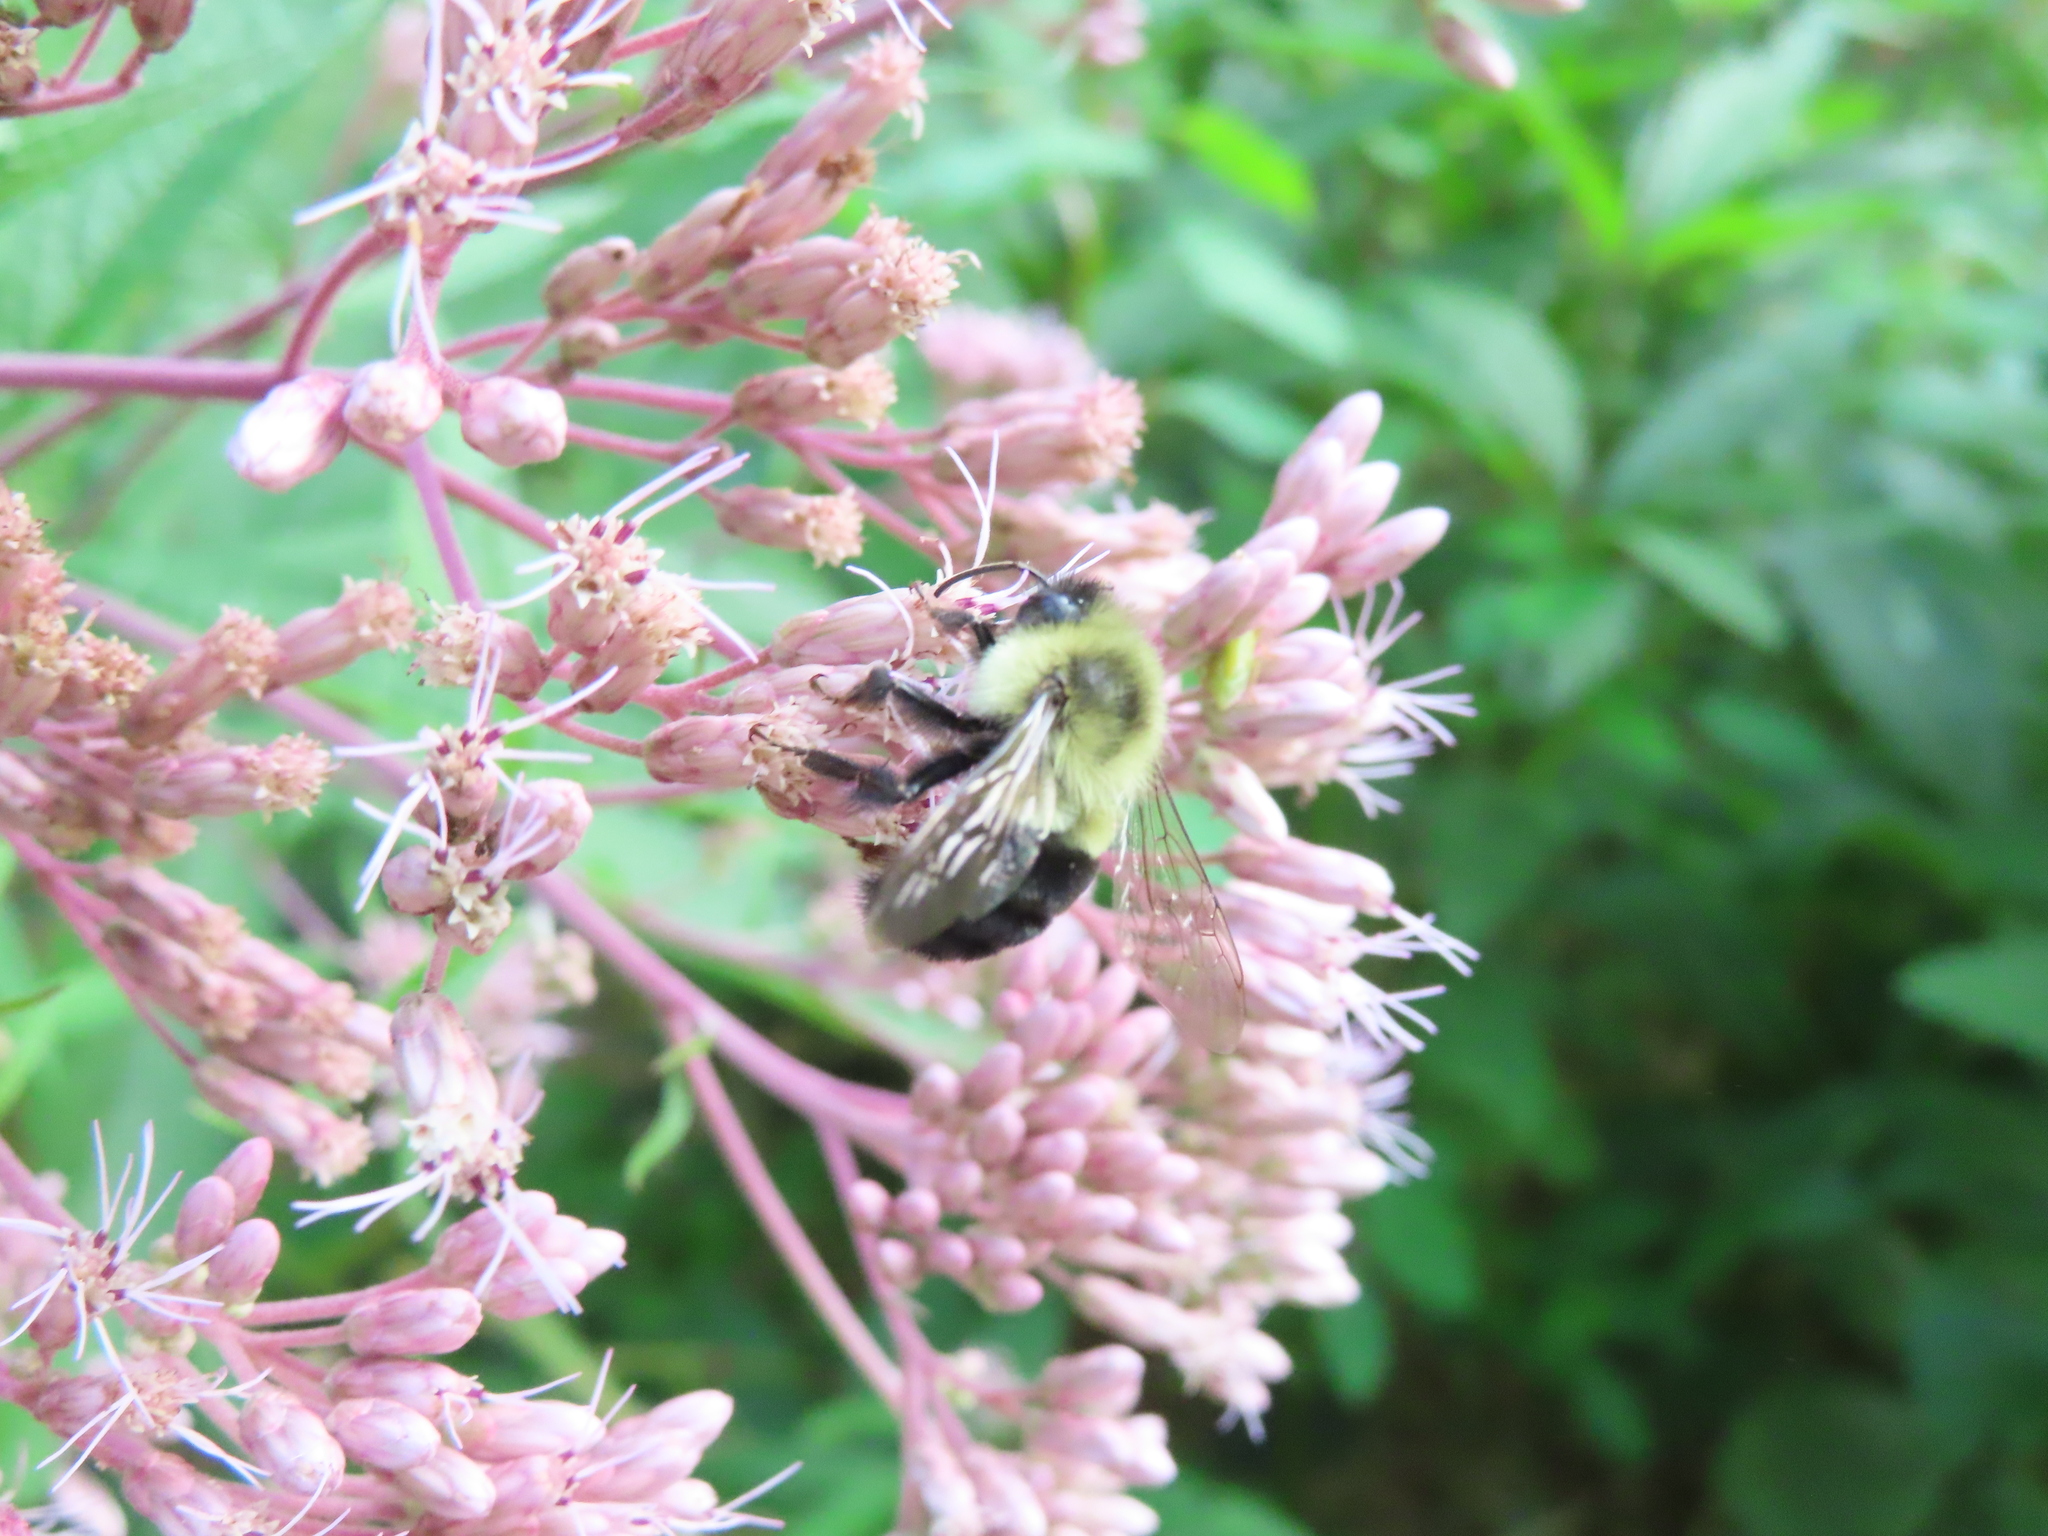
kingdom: Animalia
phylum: Arthropoda
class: Insecta
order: Hymenoptera
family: Apidae
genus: Bombus
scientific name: Bombus impatiens
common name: Common eastern bumble bee
